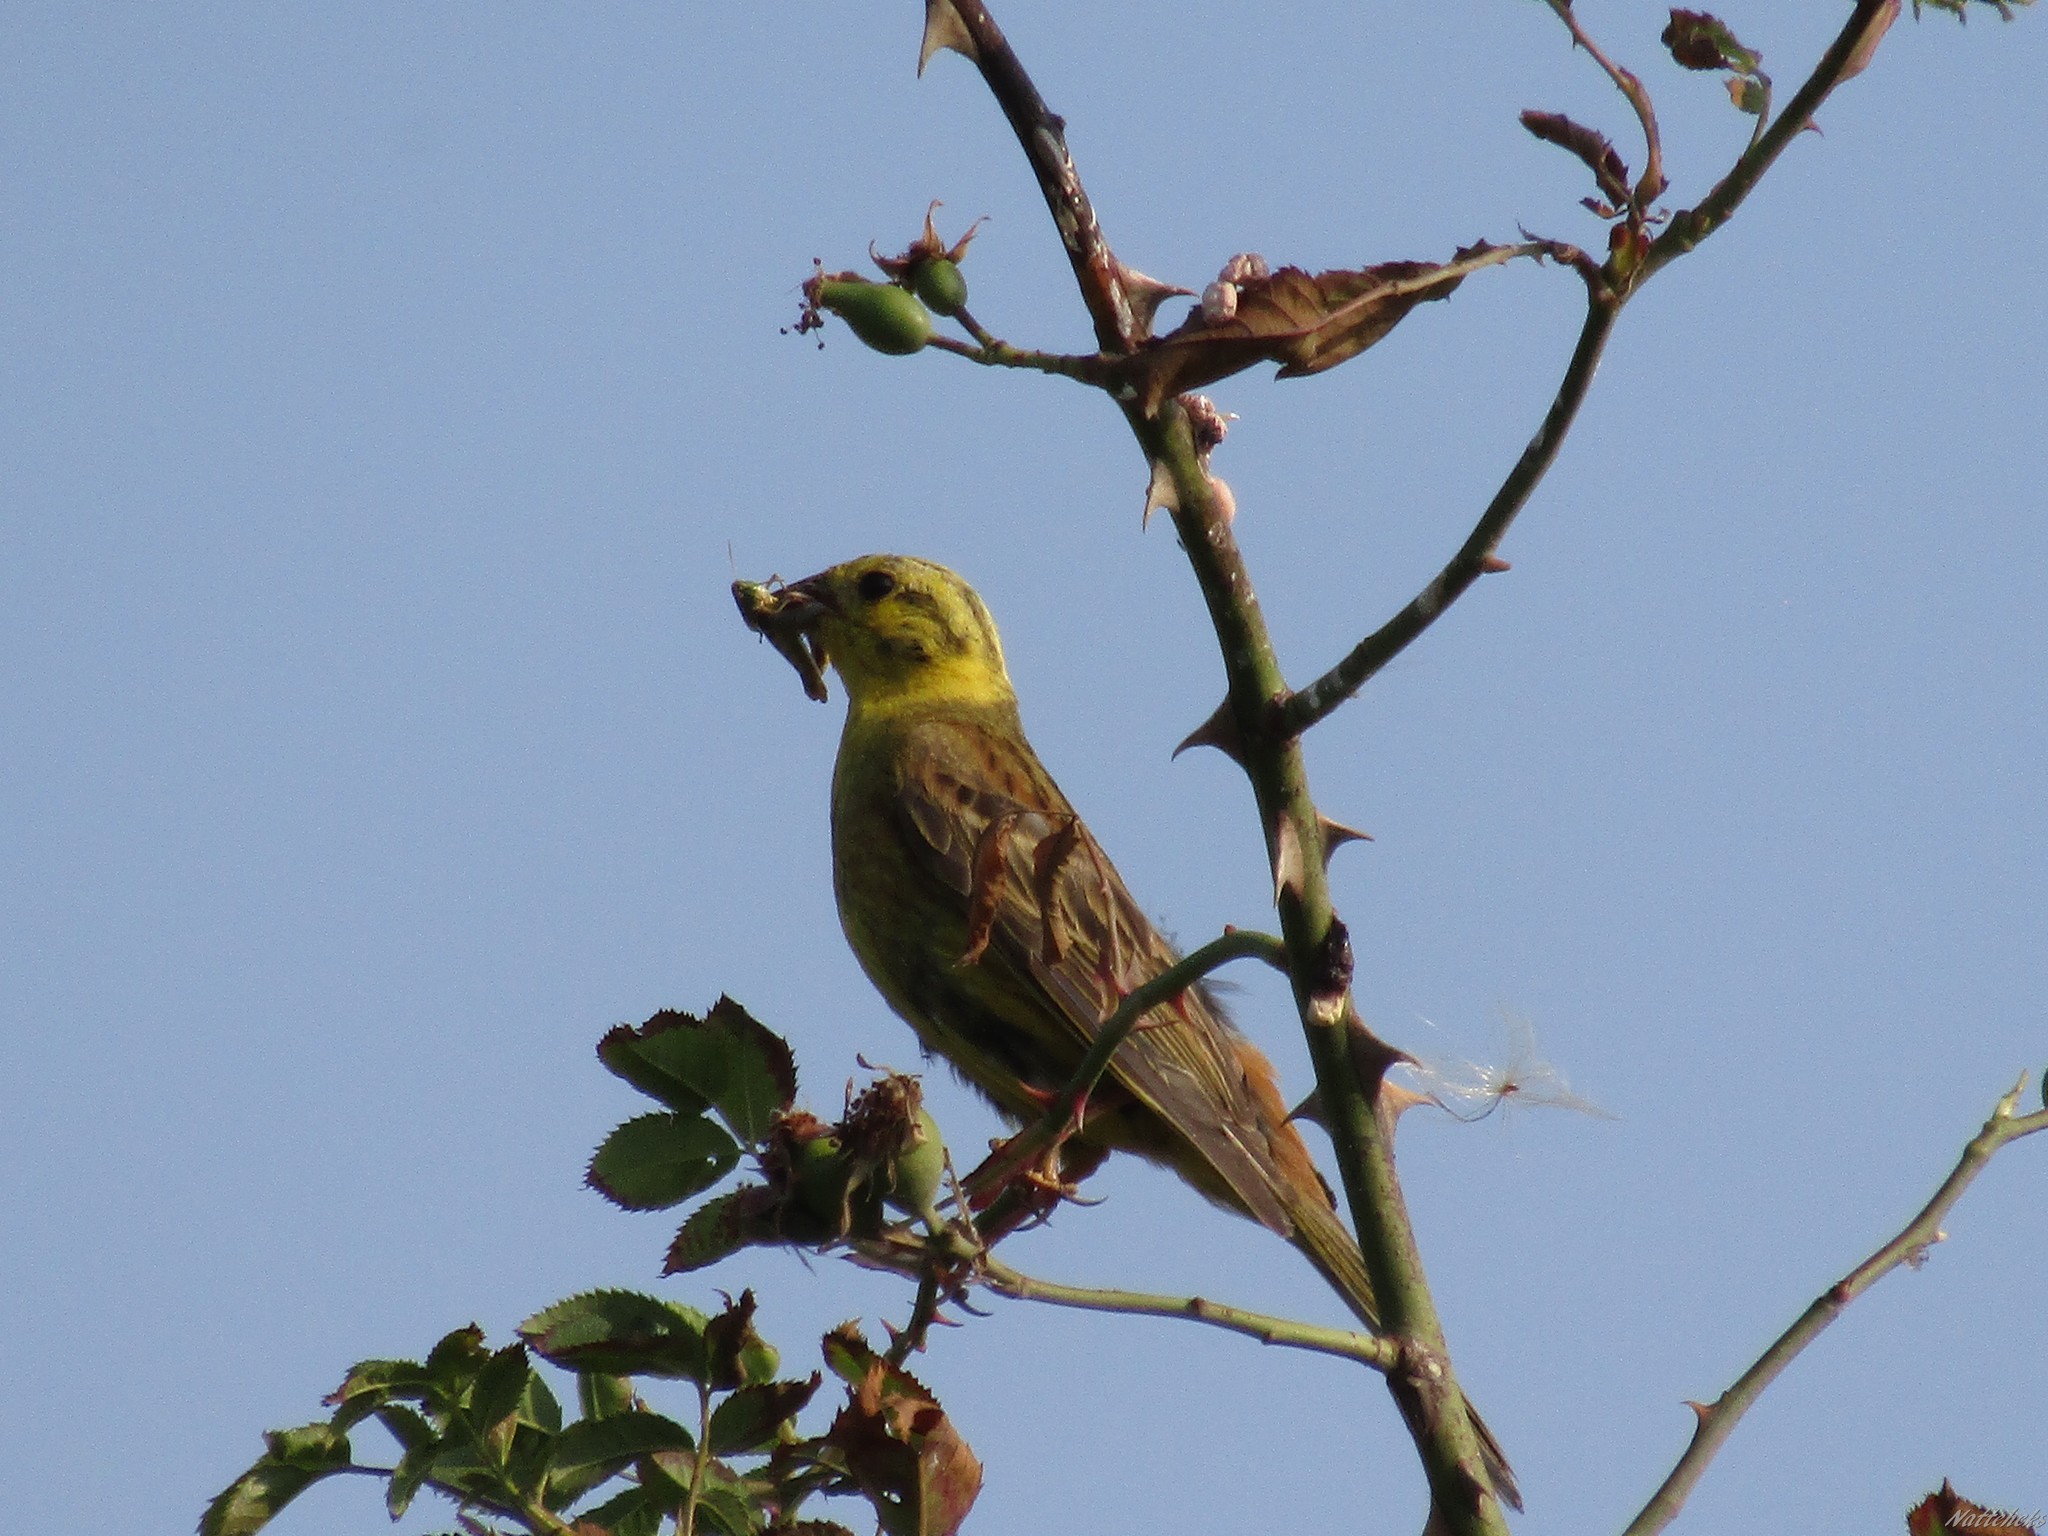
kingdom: Animalia
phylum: Chordata
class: Aves
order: Passeriformes
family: Emberizidae
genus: Emberiza
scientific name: Emberiza citrinella
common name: Yellowhammer
